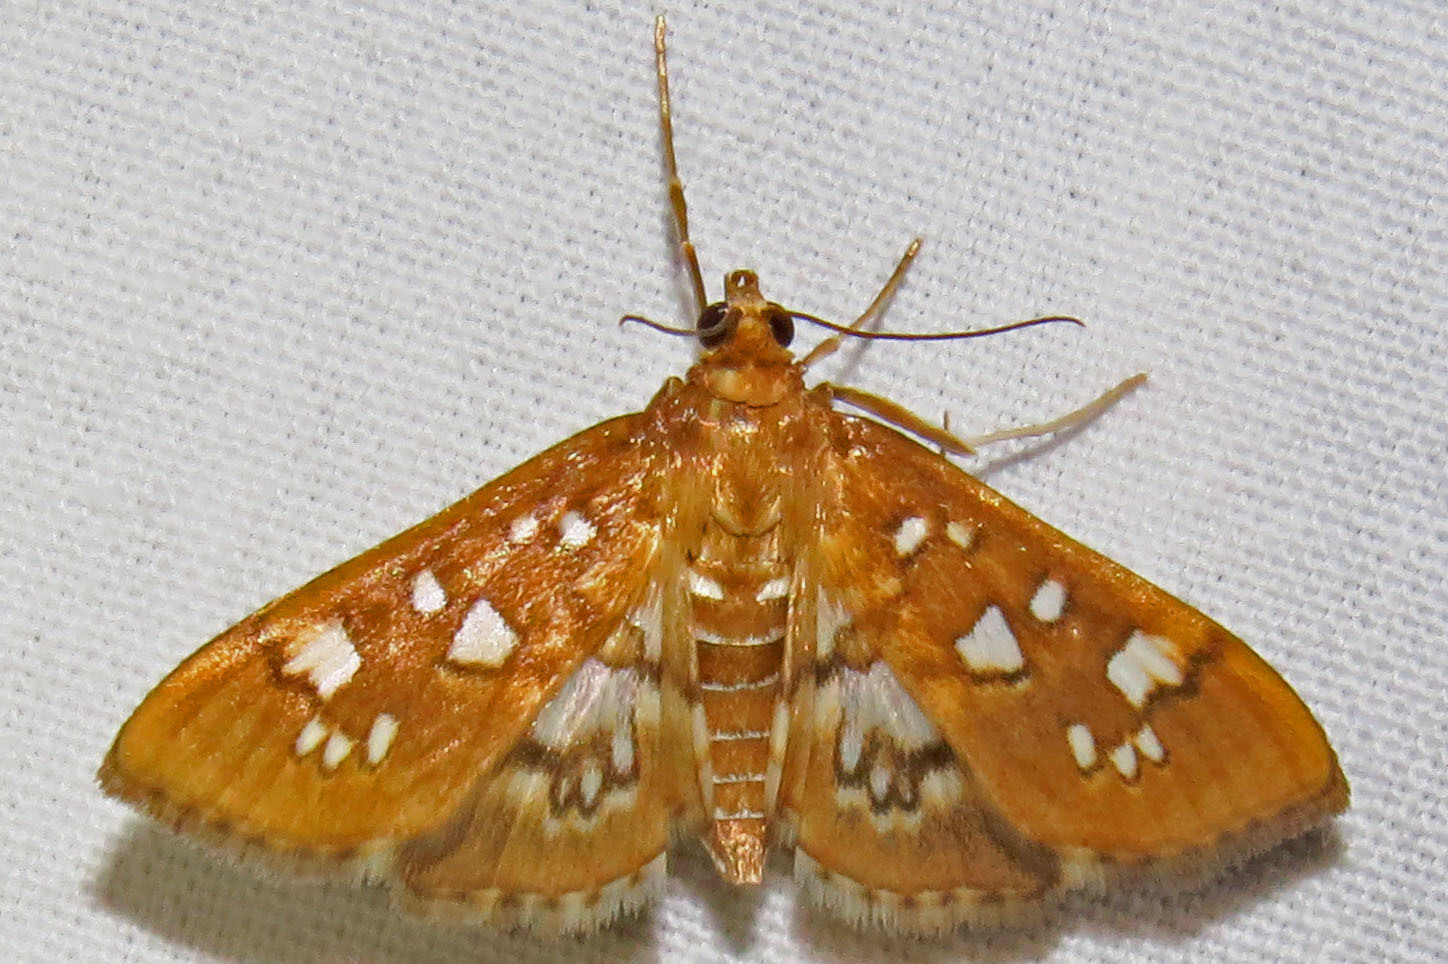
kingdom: Animalia
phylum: Arthropoda
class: Insecta
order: Lepidoptera
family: Crambidae
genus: Samea
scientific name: Samea baccatalis
